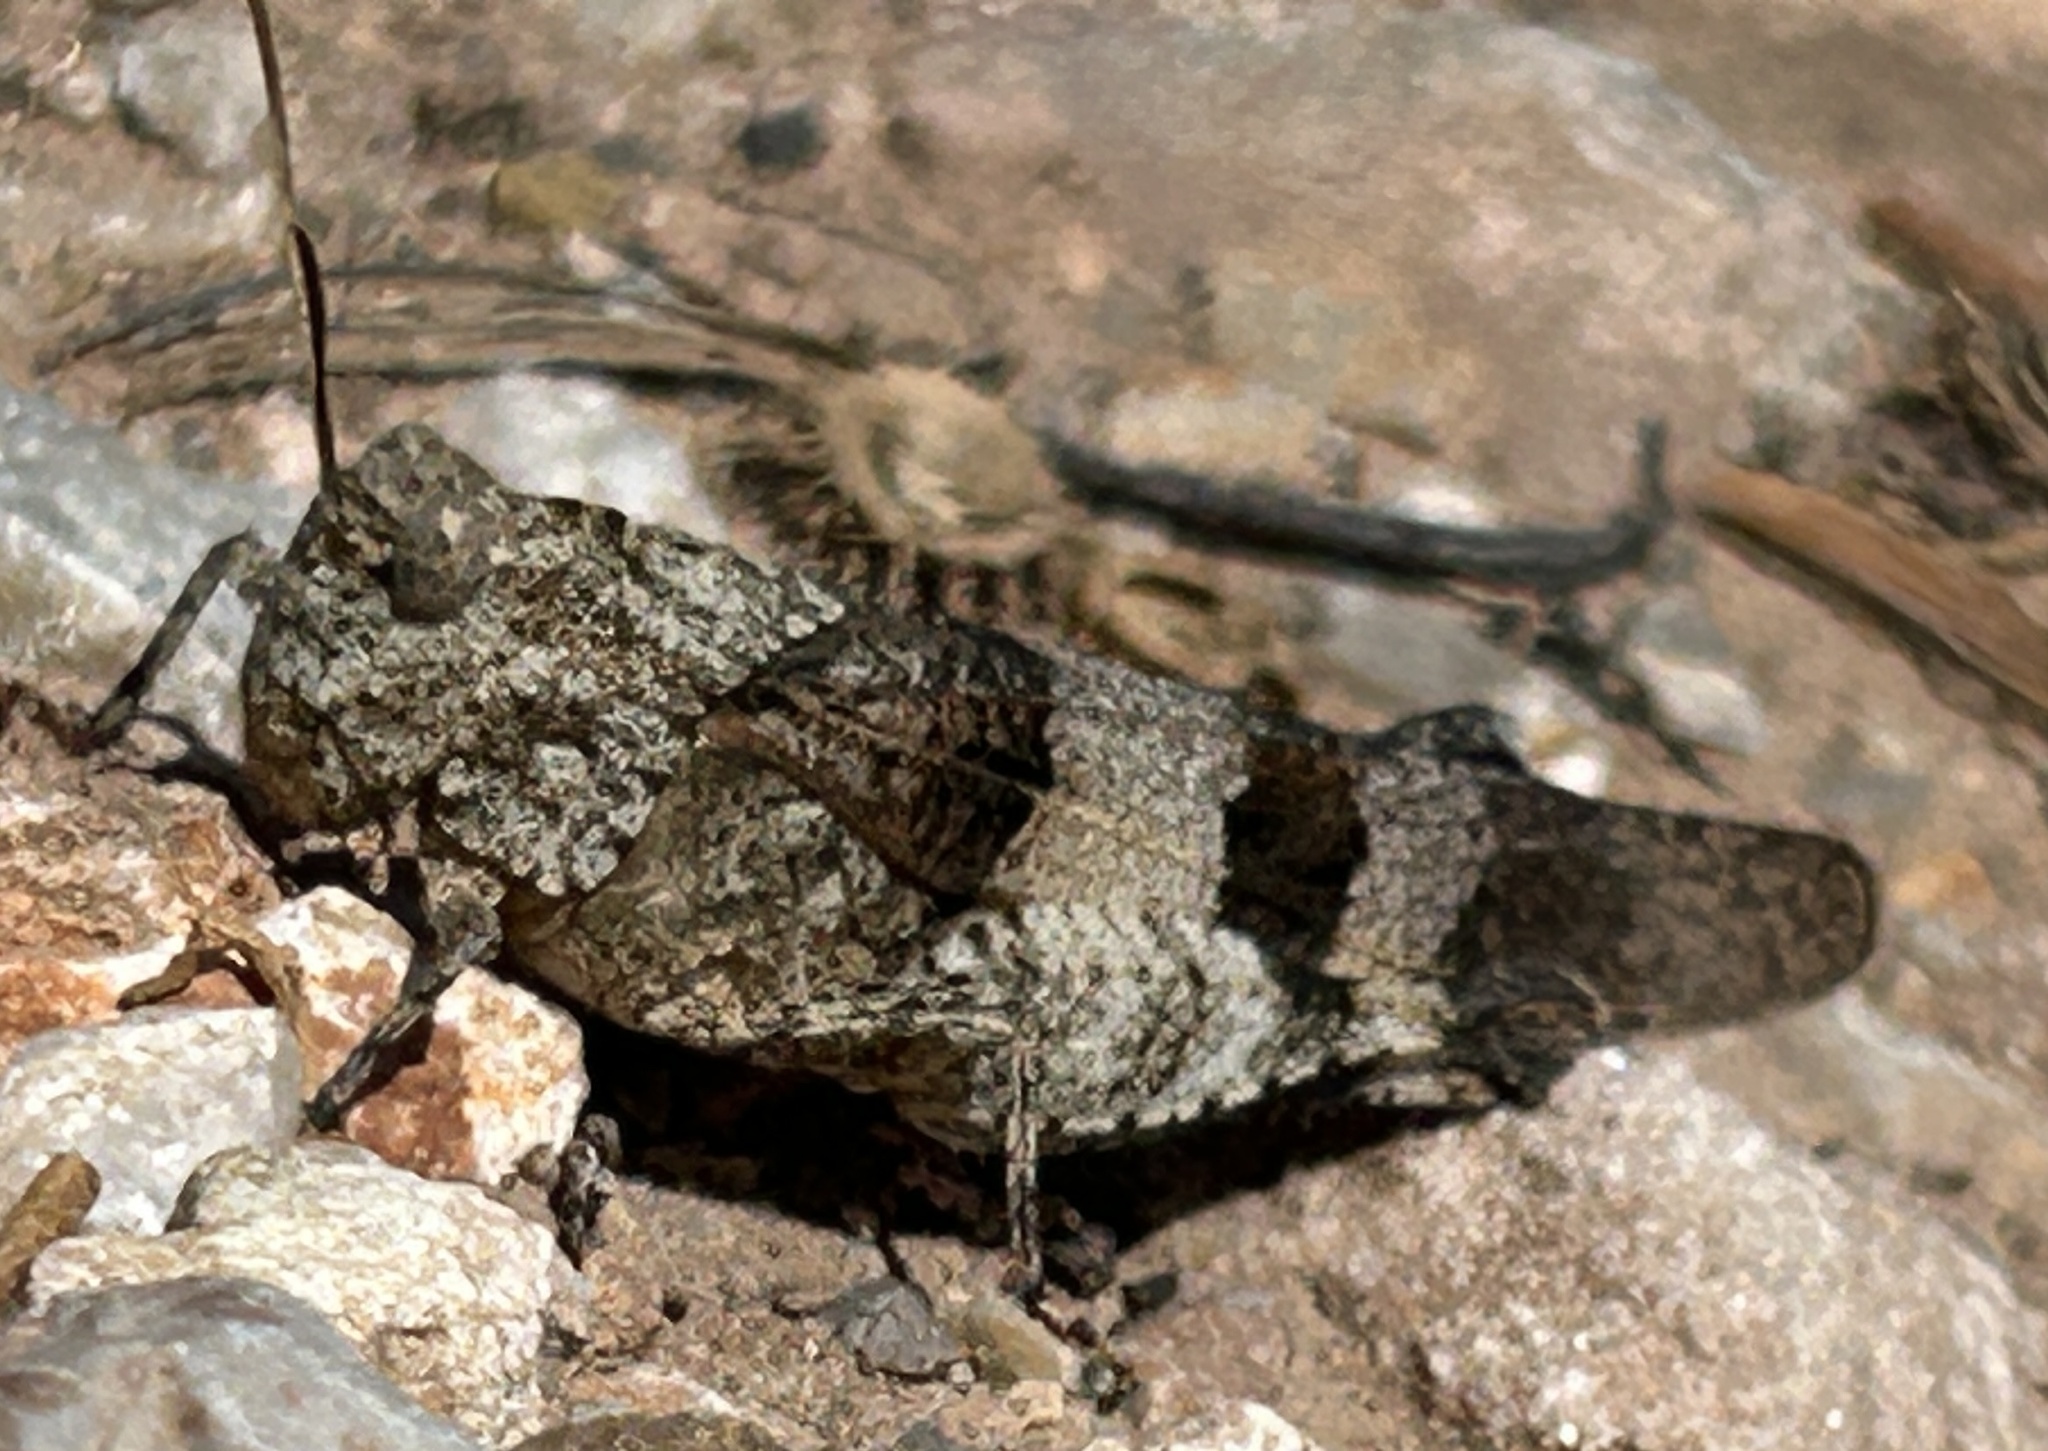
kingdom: Animalia
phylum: Arthropoda
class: Insecta
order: Orthoptera
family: Acrididae
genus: Oedipoda
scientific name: Oedipoda caerulescens
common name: Blue-winged grasshopper
